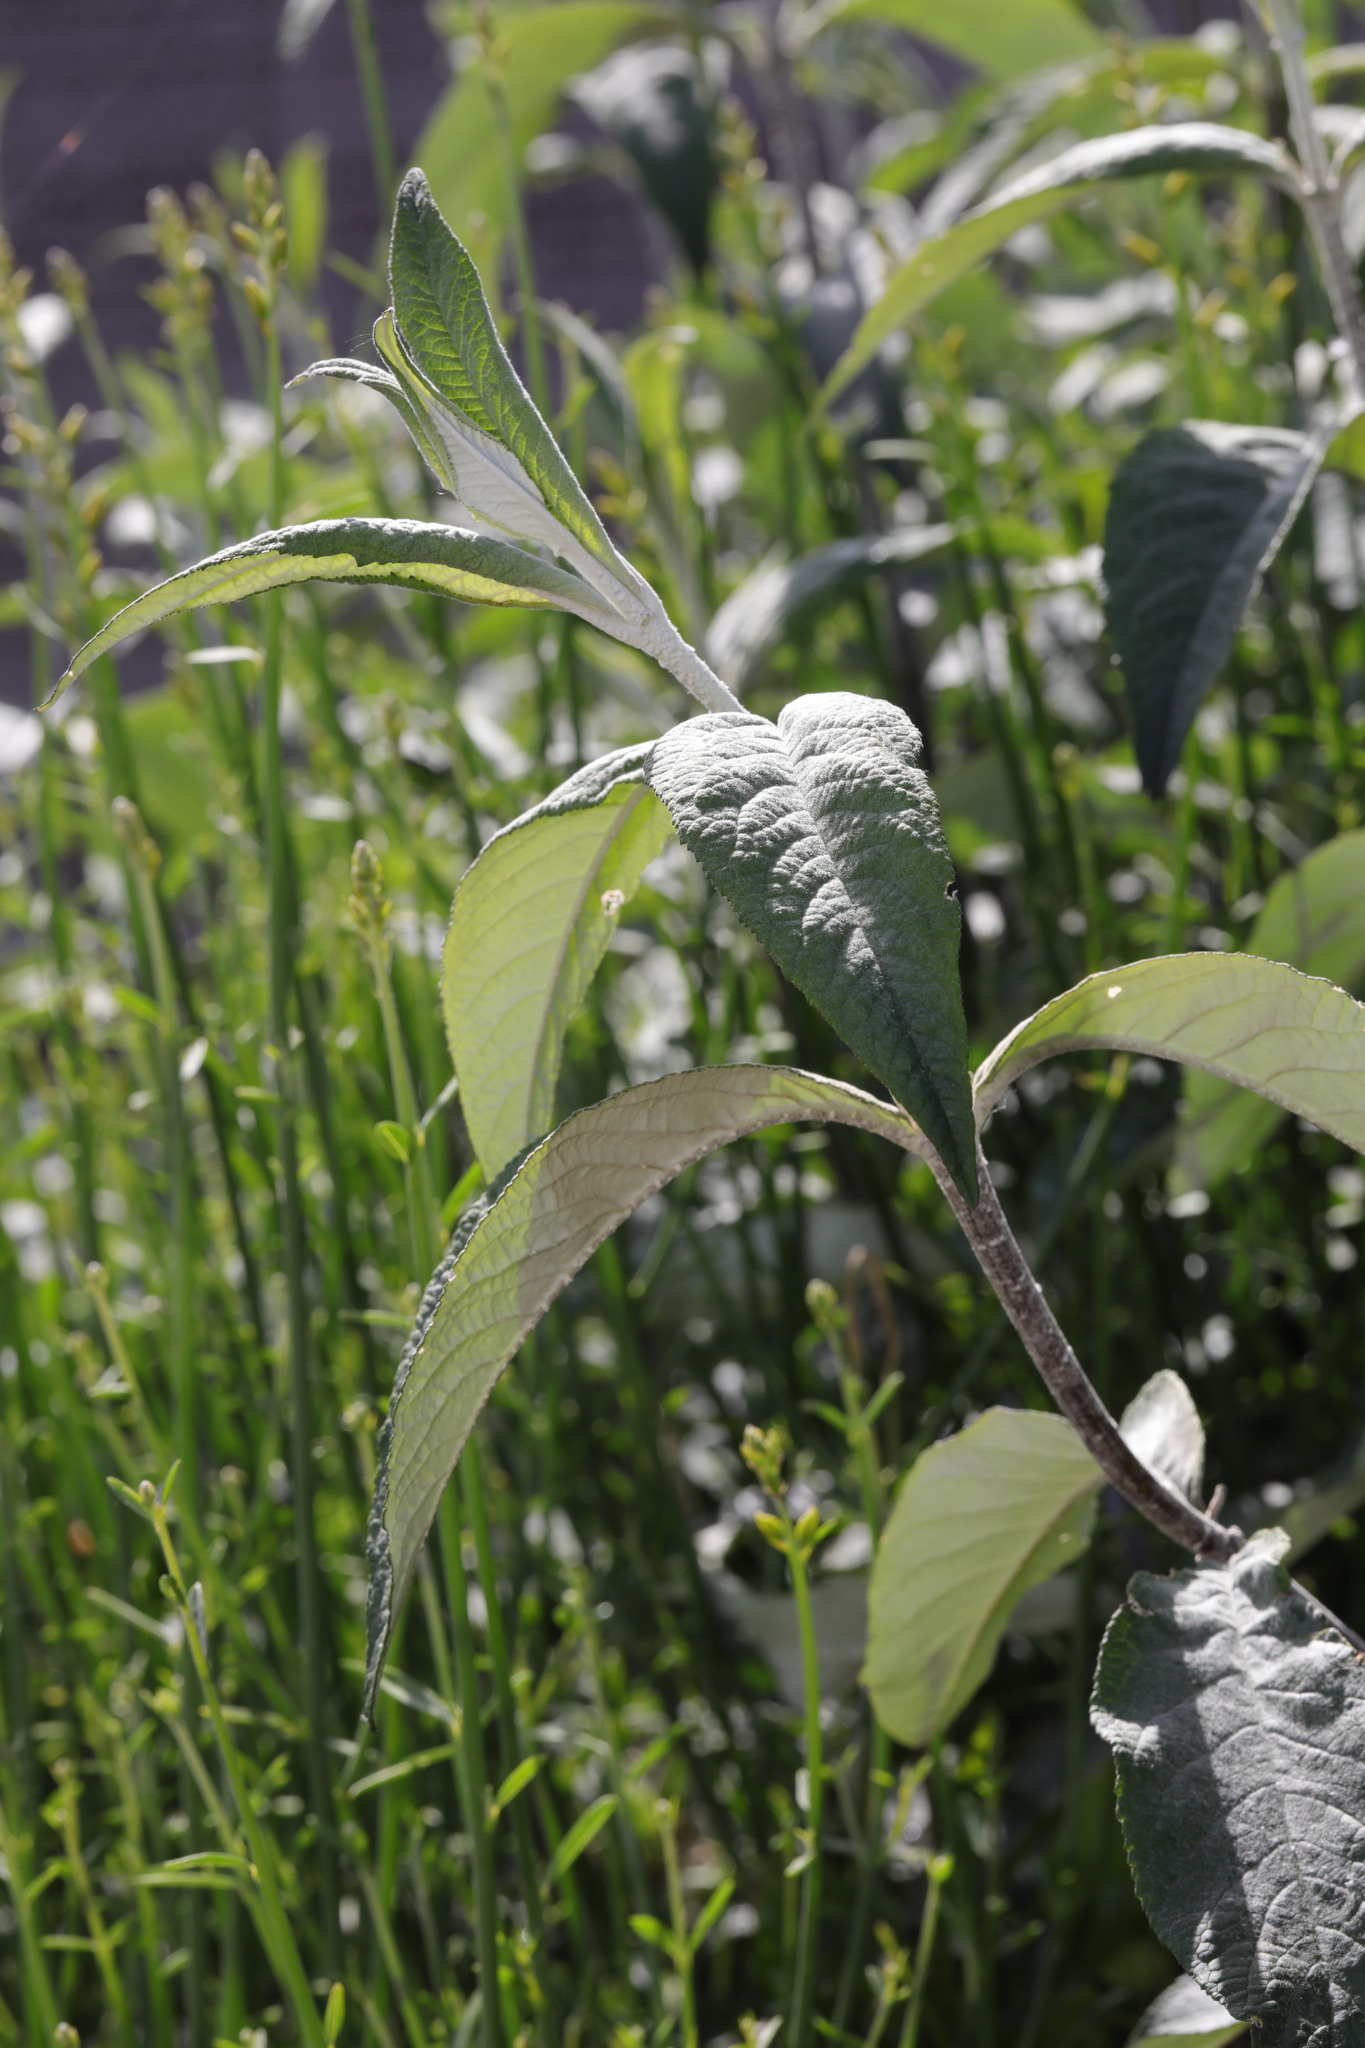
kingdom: Plantae
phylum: Tracheophyta
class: Magnoliopsida
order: Lamiales
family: Scrophulariaceae
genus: Buddleja
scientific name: Buddleja davidii
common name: Butterfly-bush
